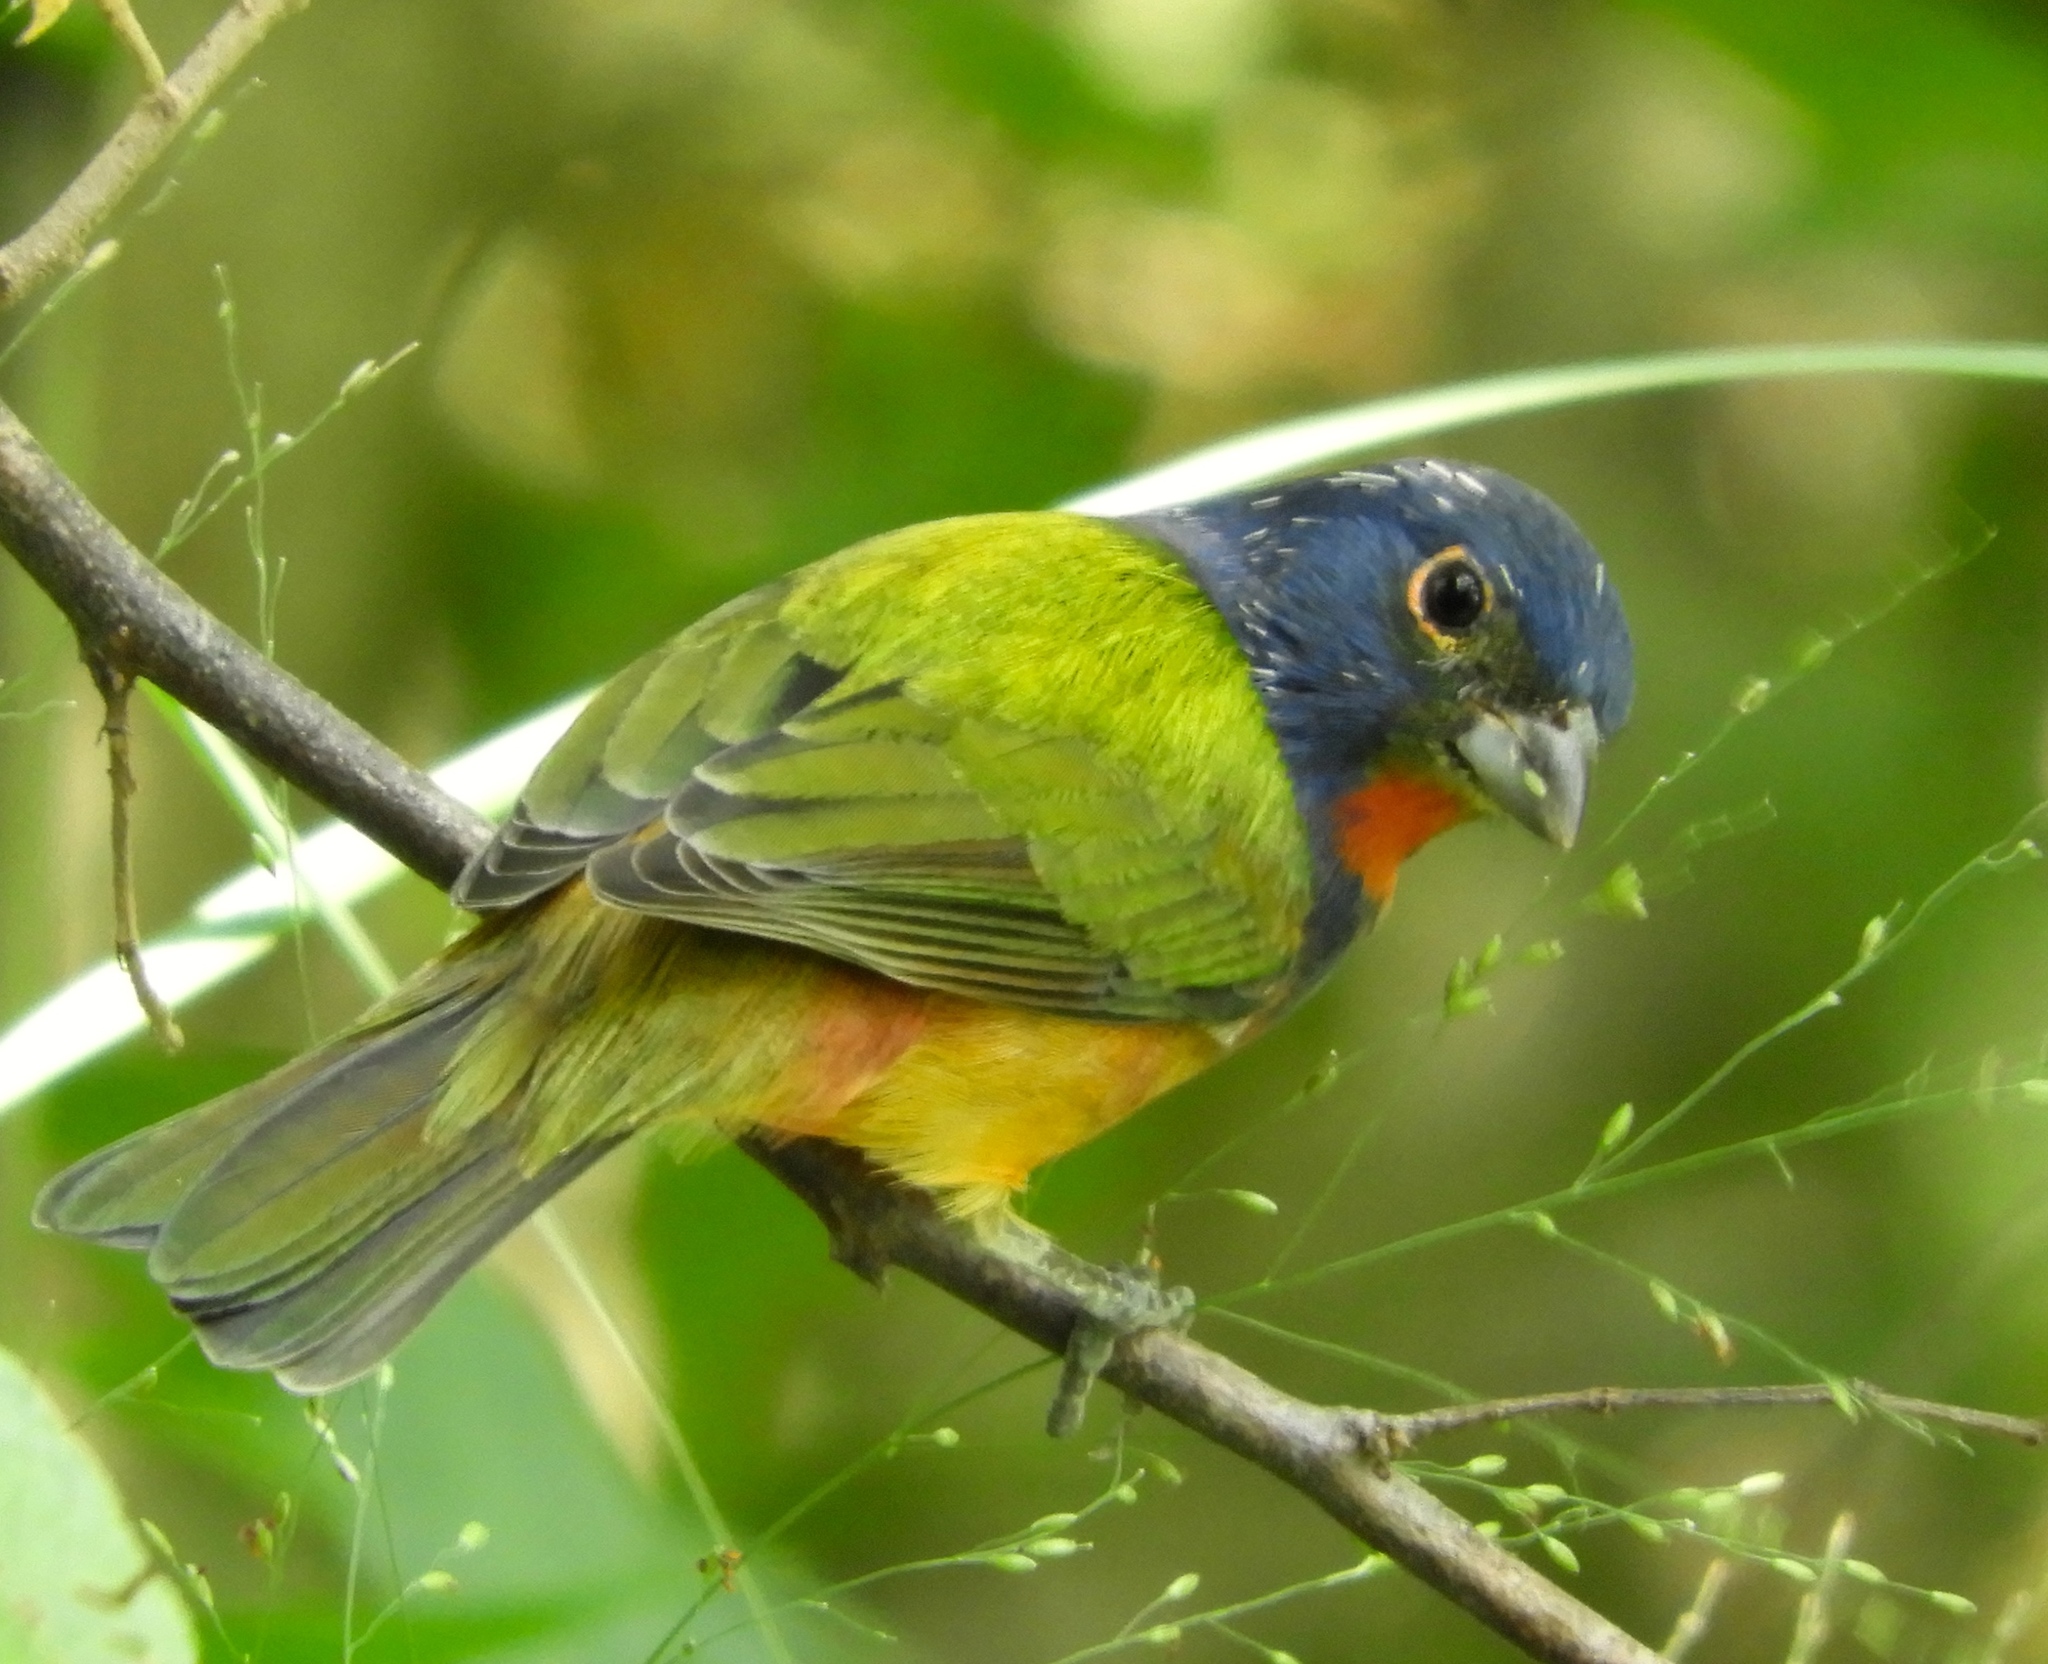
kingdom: Animalia
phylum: Chordata
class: Aves
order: Passeriformes
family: Cardinalidae
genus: Passerina
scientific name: Passerina ciris
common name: Painted bunting
